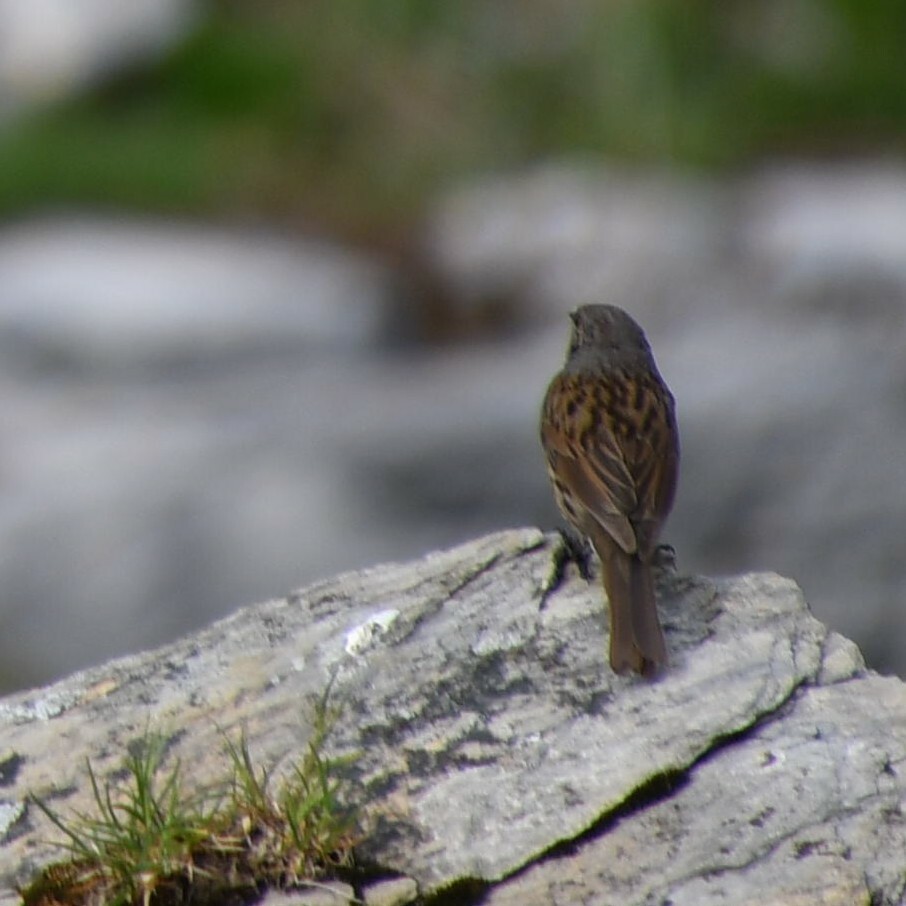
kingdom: Animalia
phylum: Chordata
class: Aves
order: Passeriformes
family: Prunellidae
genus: Prunella
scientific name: Prunella modularis
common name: Dunnock
